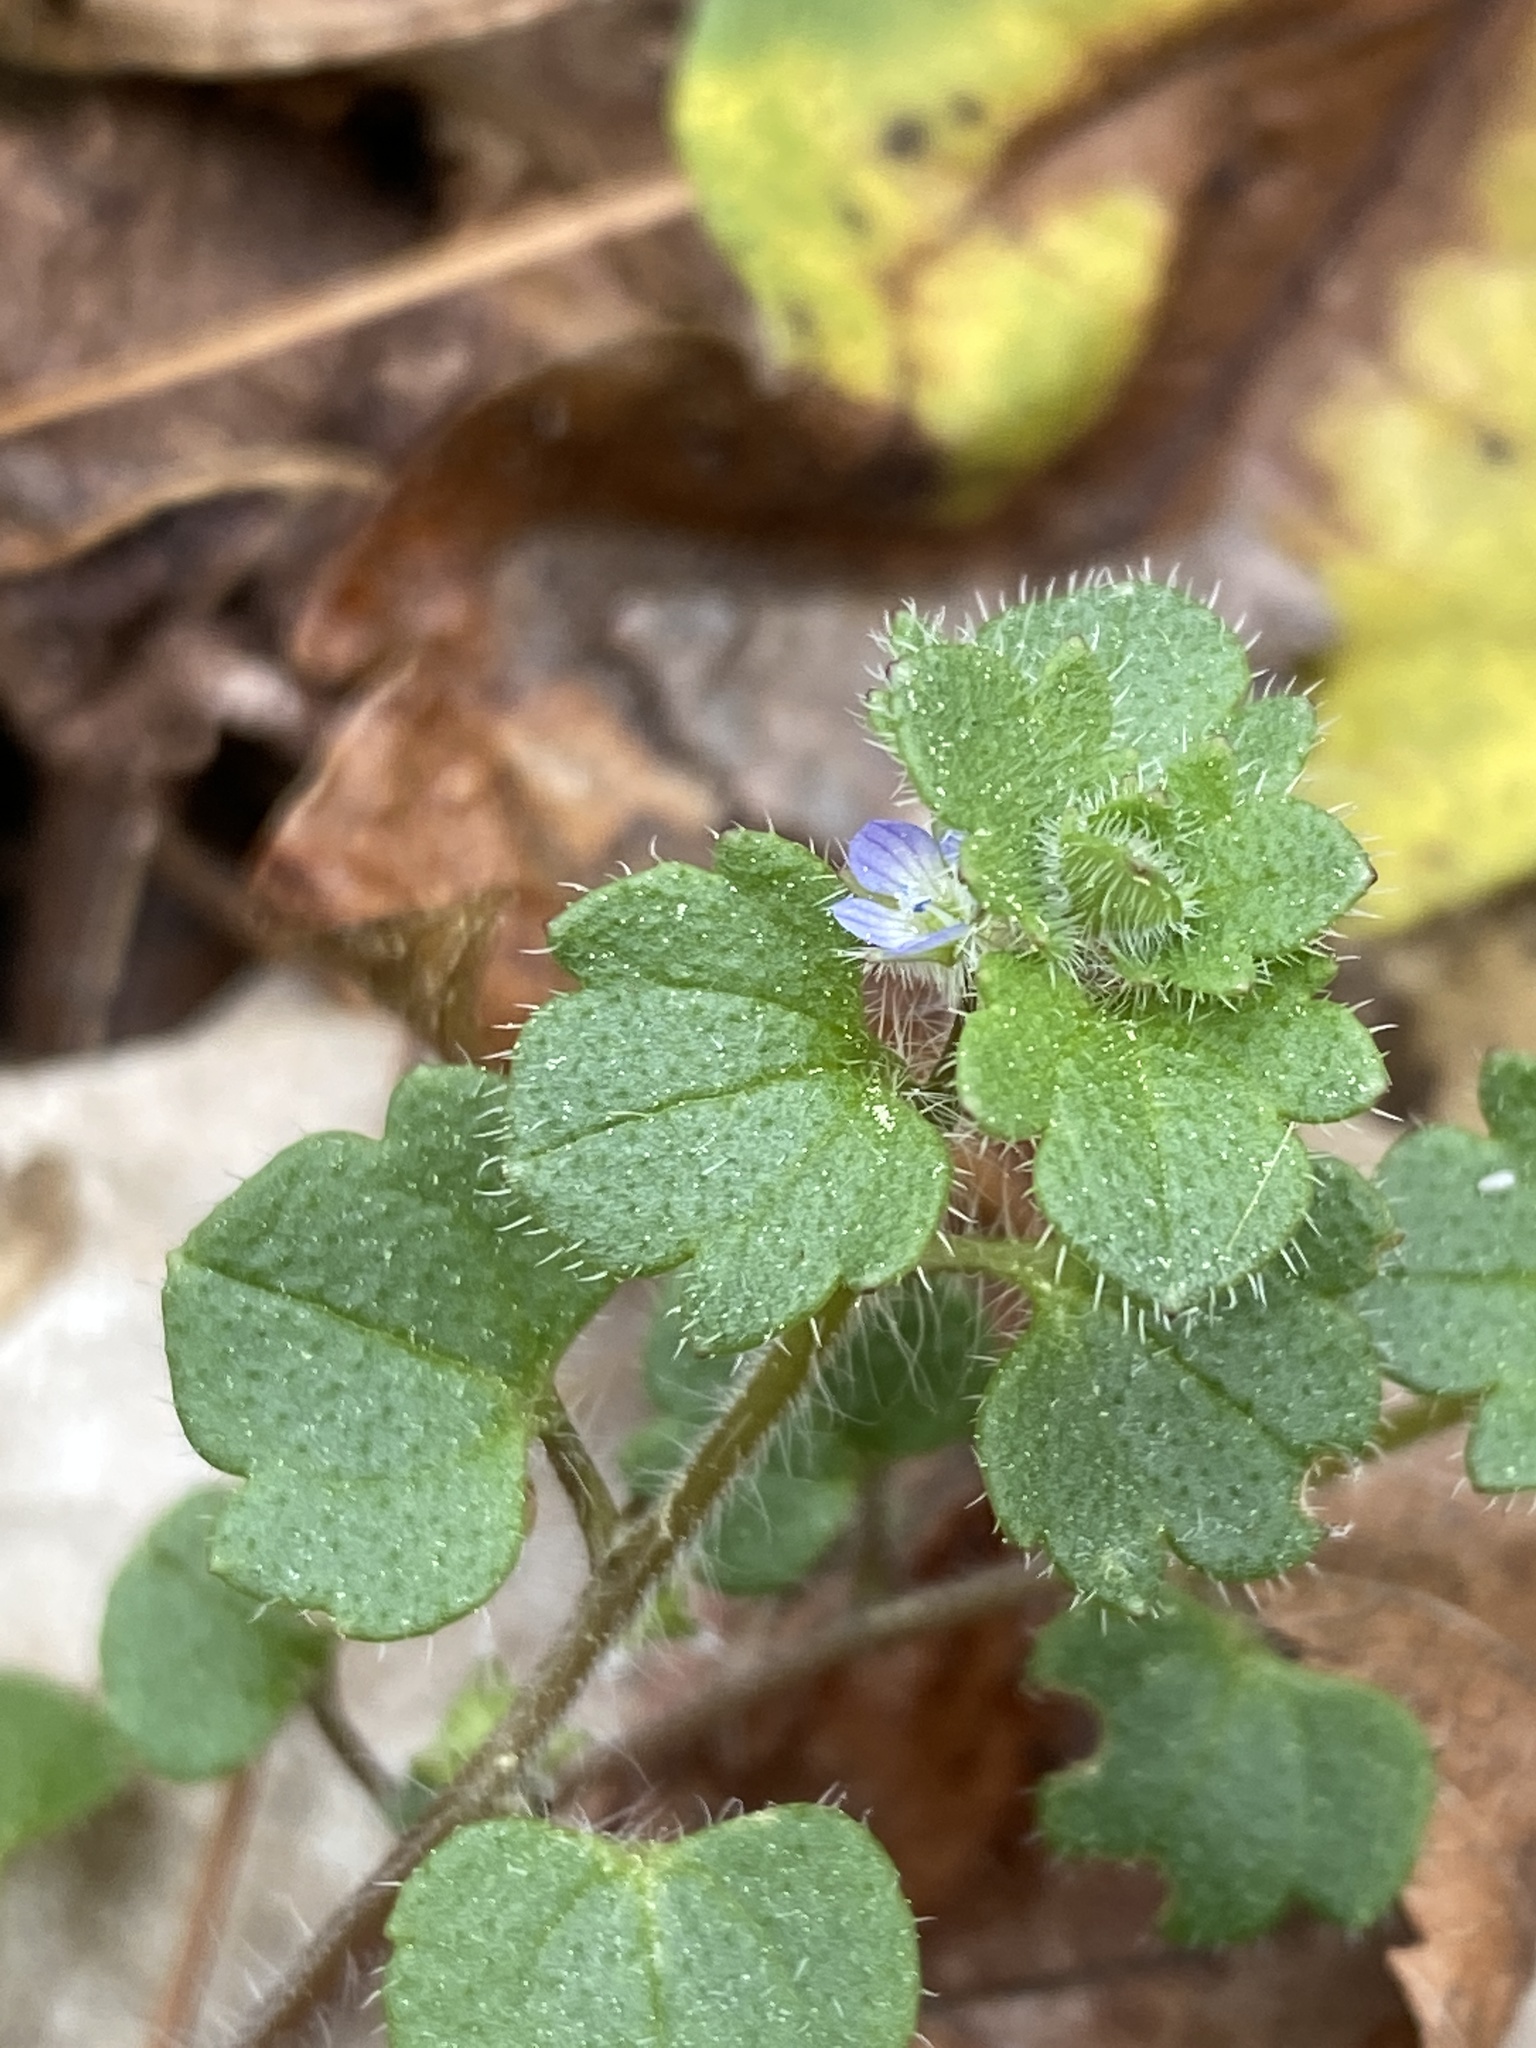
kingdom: Plantae
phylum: Tracheophyta
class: Magnoliopsida
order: Lamiales
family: Plantaginaceae
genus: Veronica
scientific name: Veronica hederifolia
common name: Ivy-leaved speedwell
